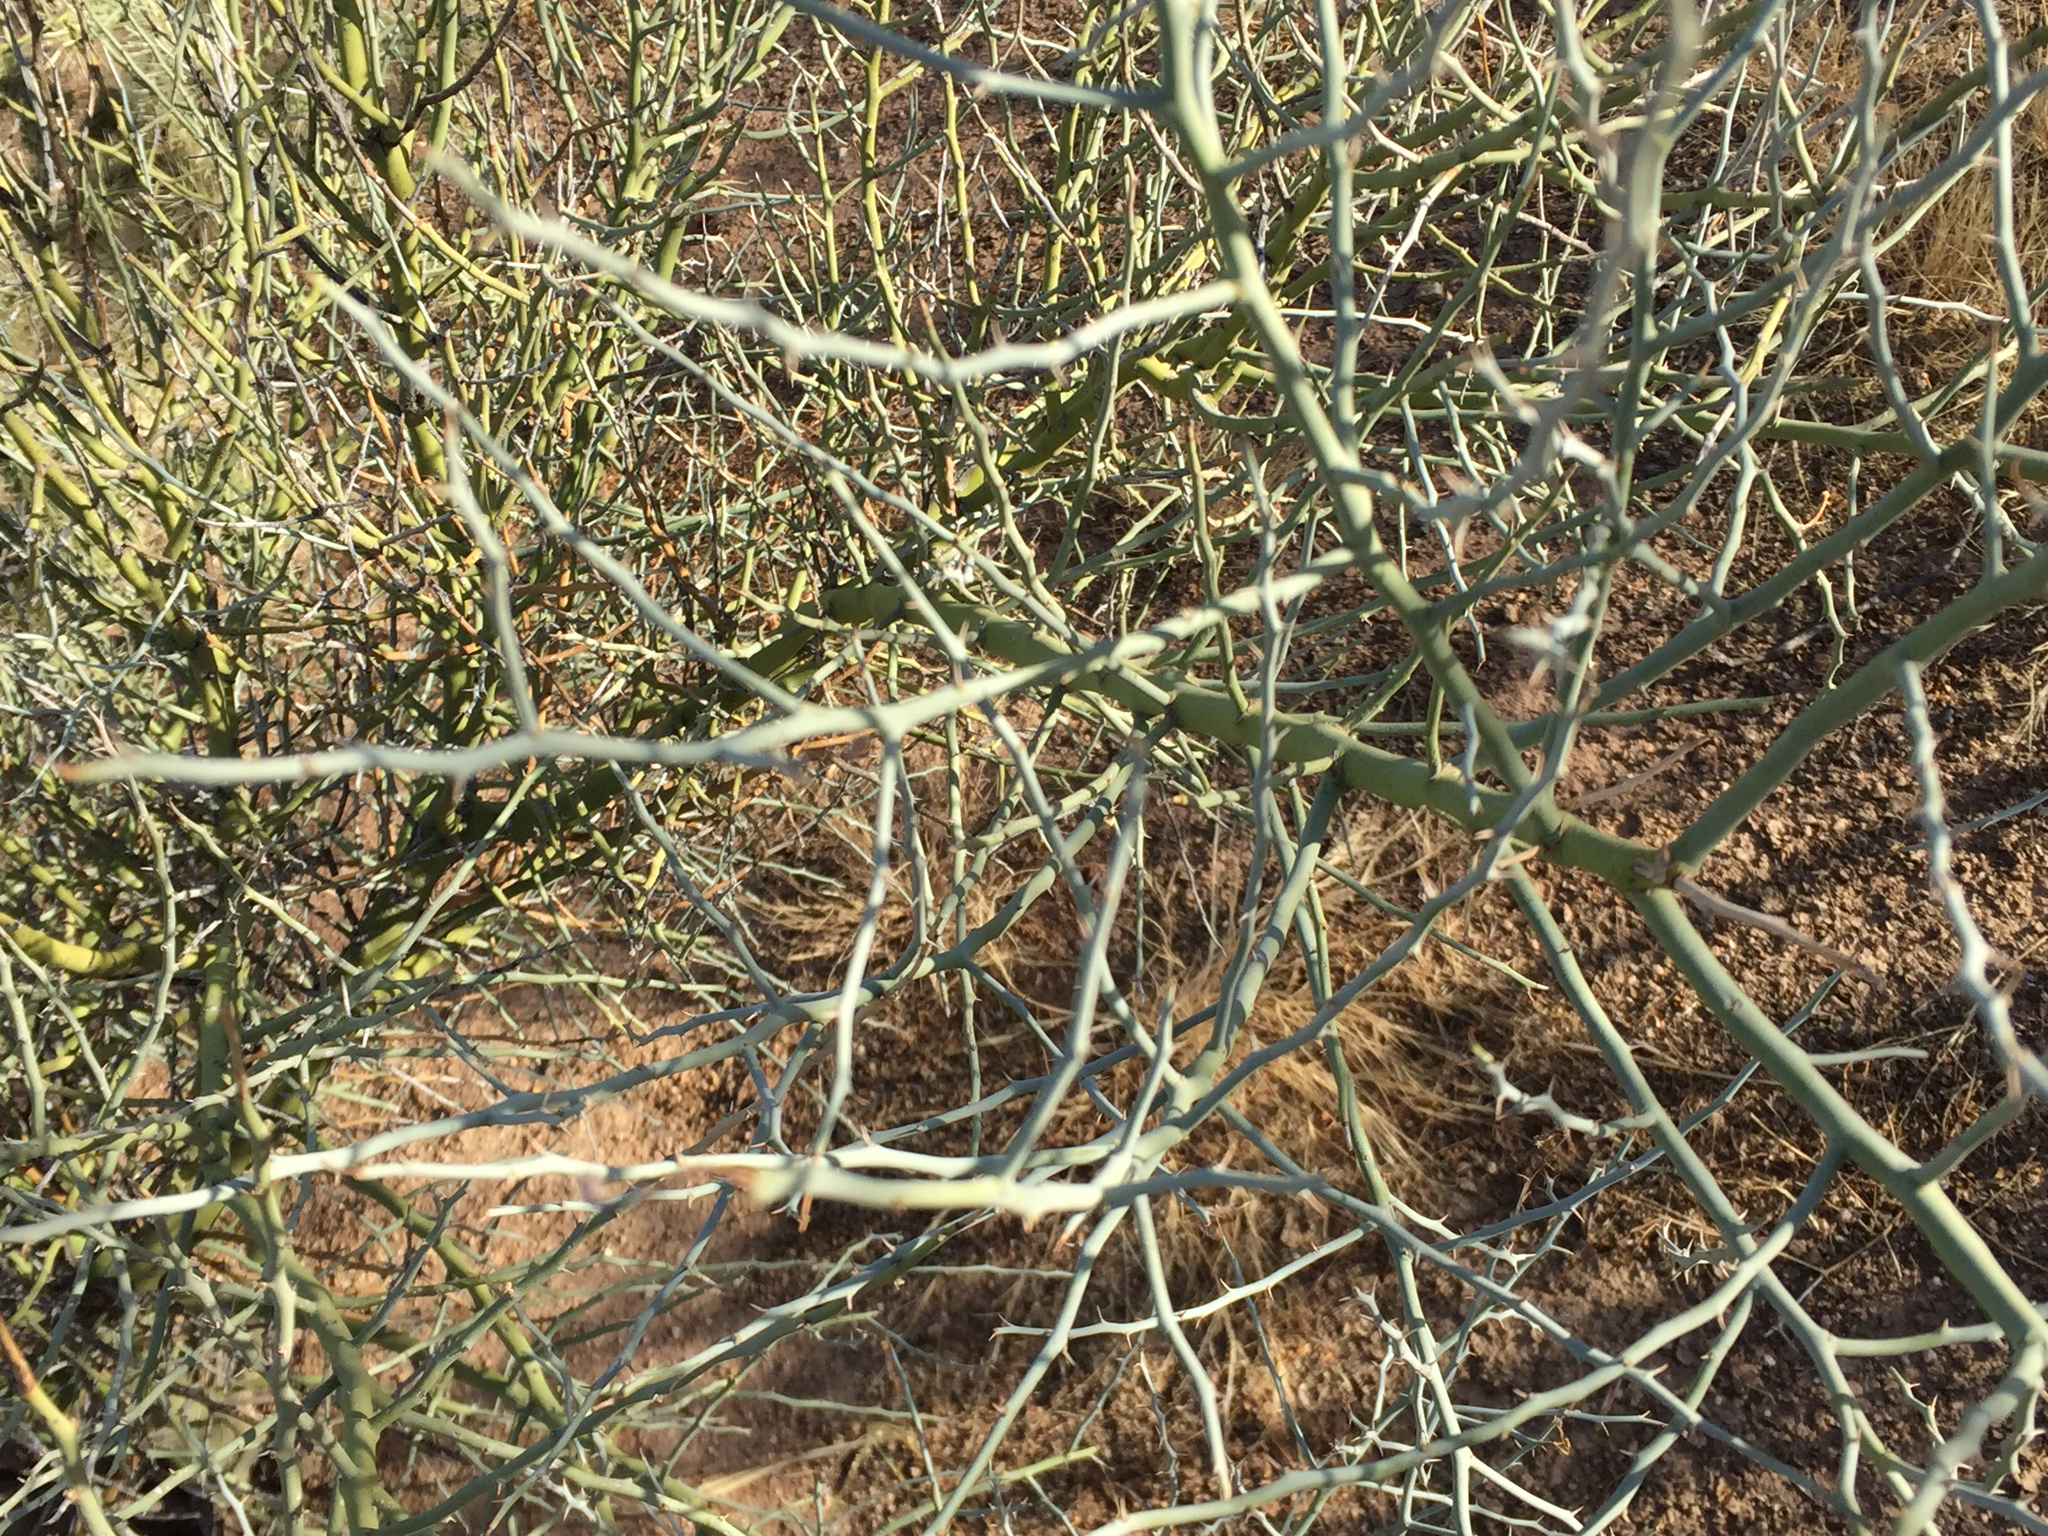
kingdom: Plantae
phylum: Tracheophyta
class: Magnoliopsida
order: Fabales
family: Fabaceae
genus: Parkinsonia
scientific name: Parkinsonia florida
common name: Blue paloverde
